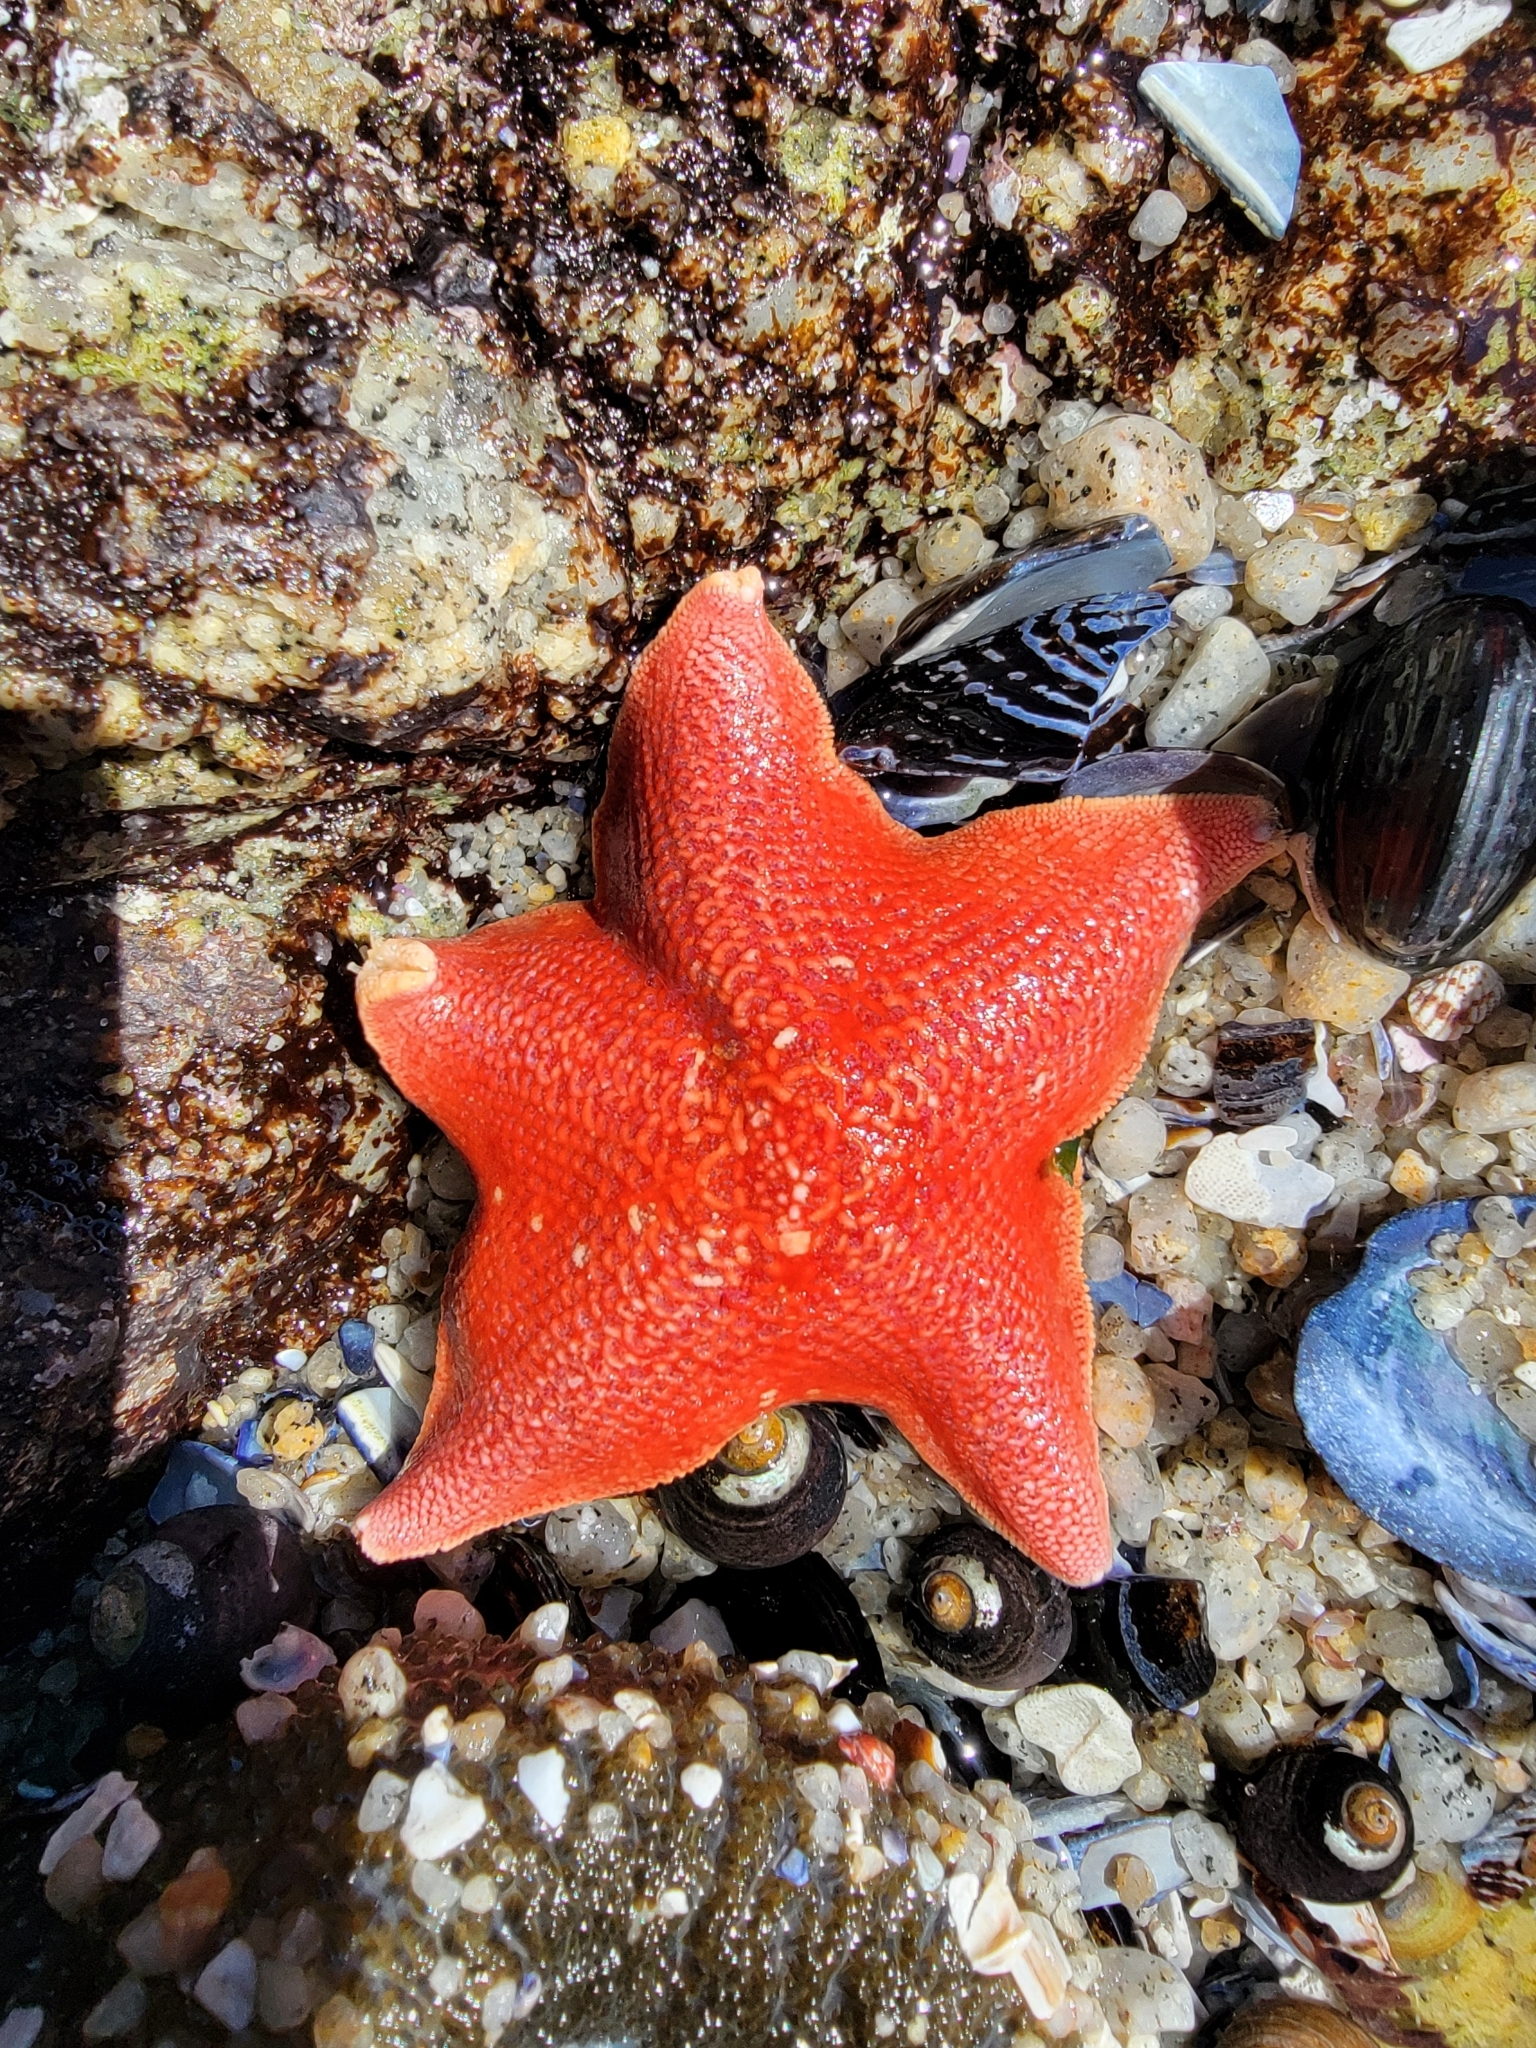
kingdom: Animalia
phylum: Echinodermata
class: Asteroidea
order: Valvatida
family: Asterinidae
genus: Patiria
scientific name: Patiria miniata
